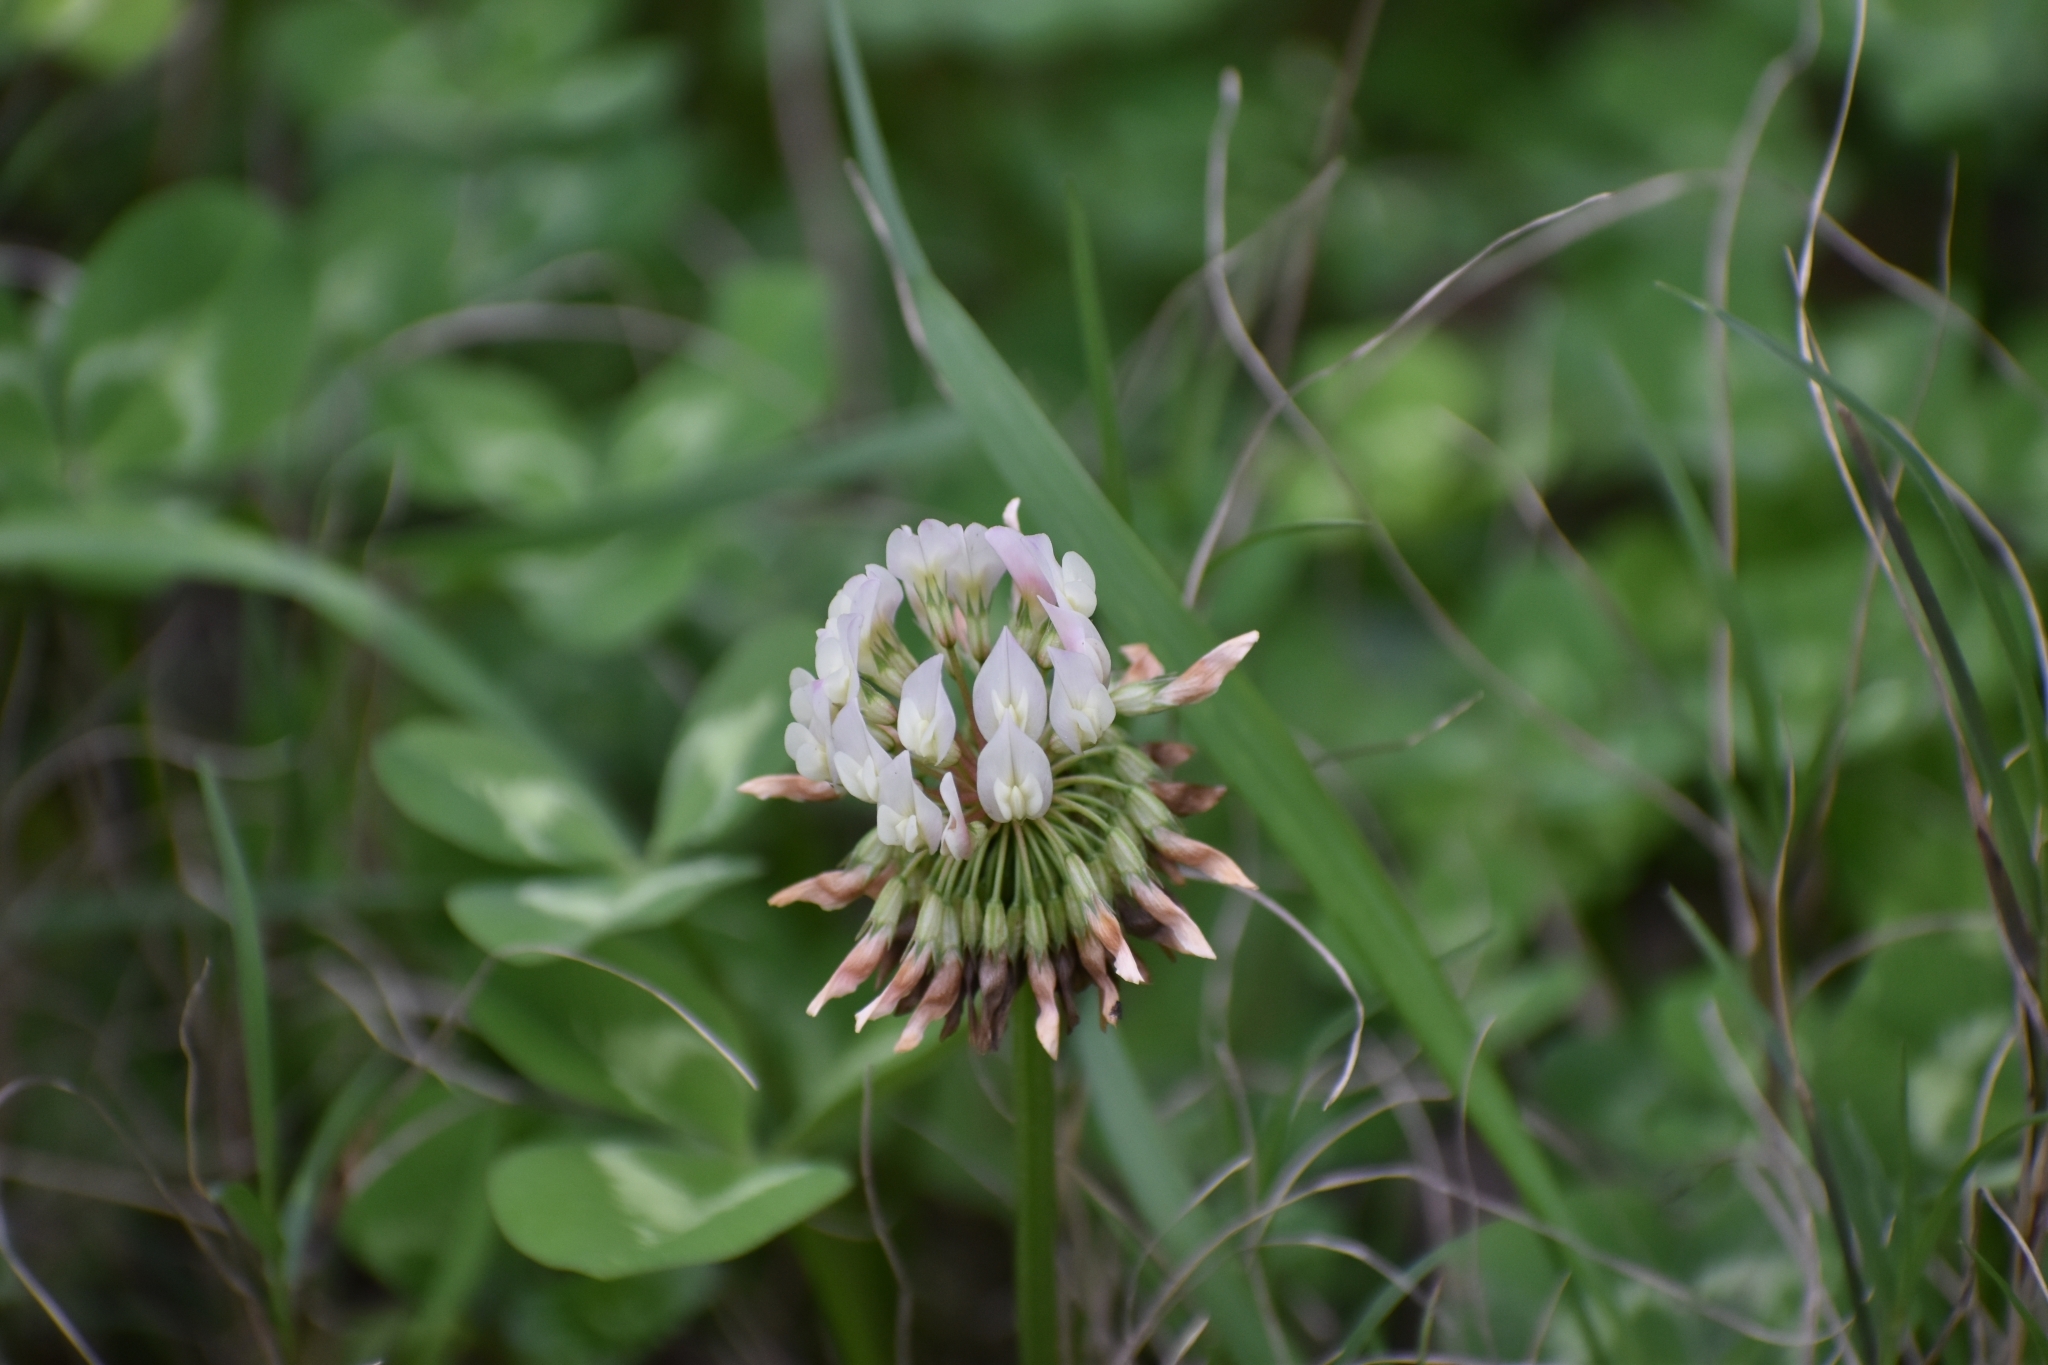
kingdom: Plantae
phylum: Tracheophyta
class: Magnoliopsida
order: Fabales
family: Fabaceae
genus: Trifolium
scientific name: Trifolium repens
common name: White clover
